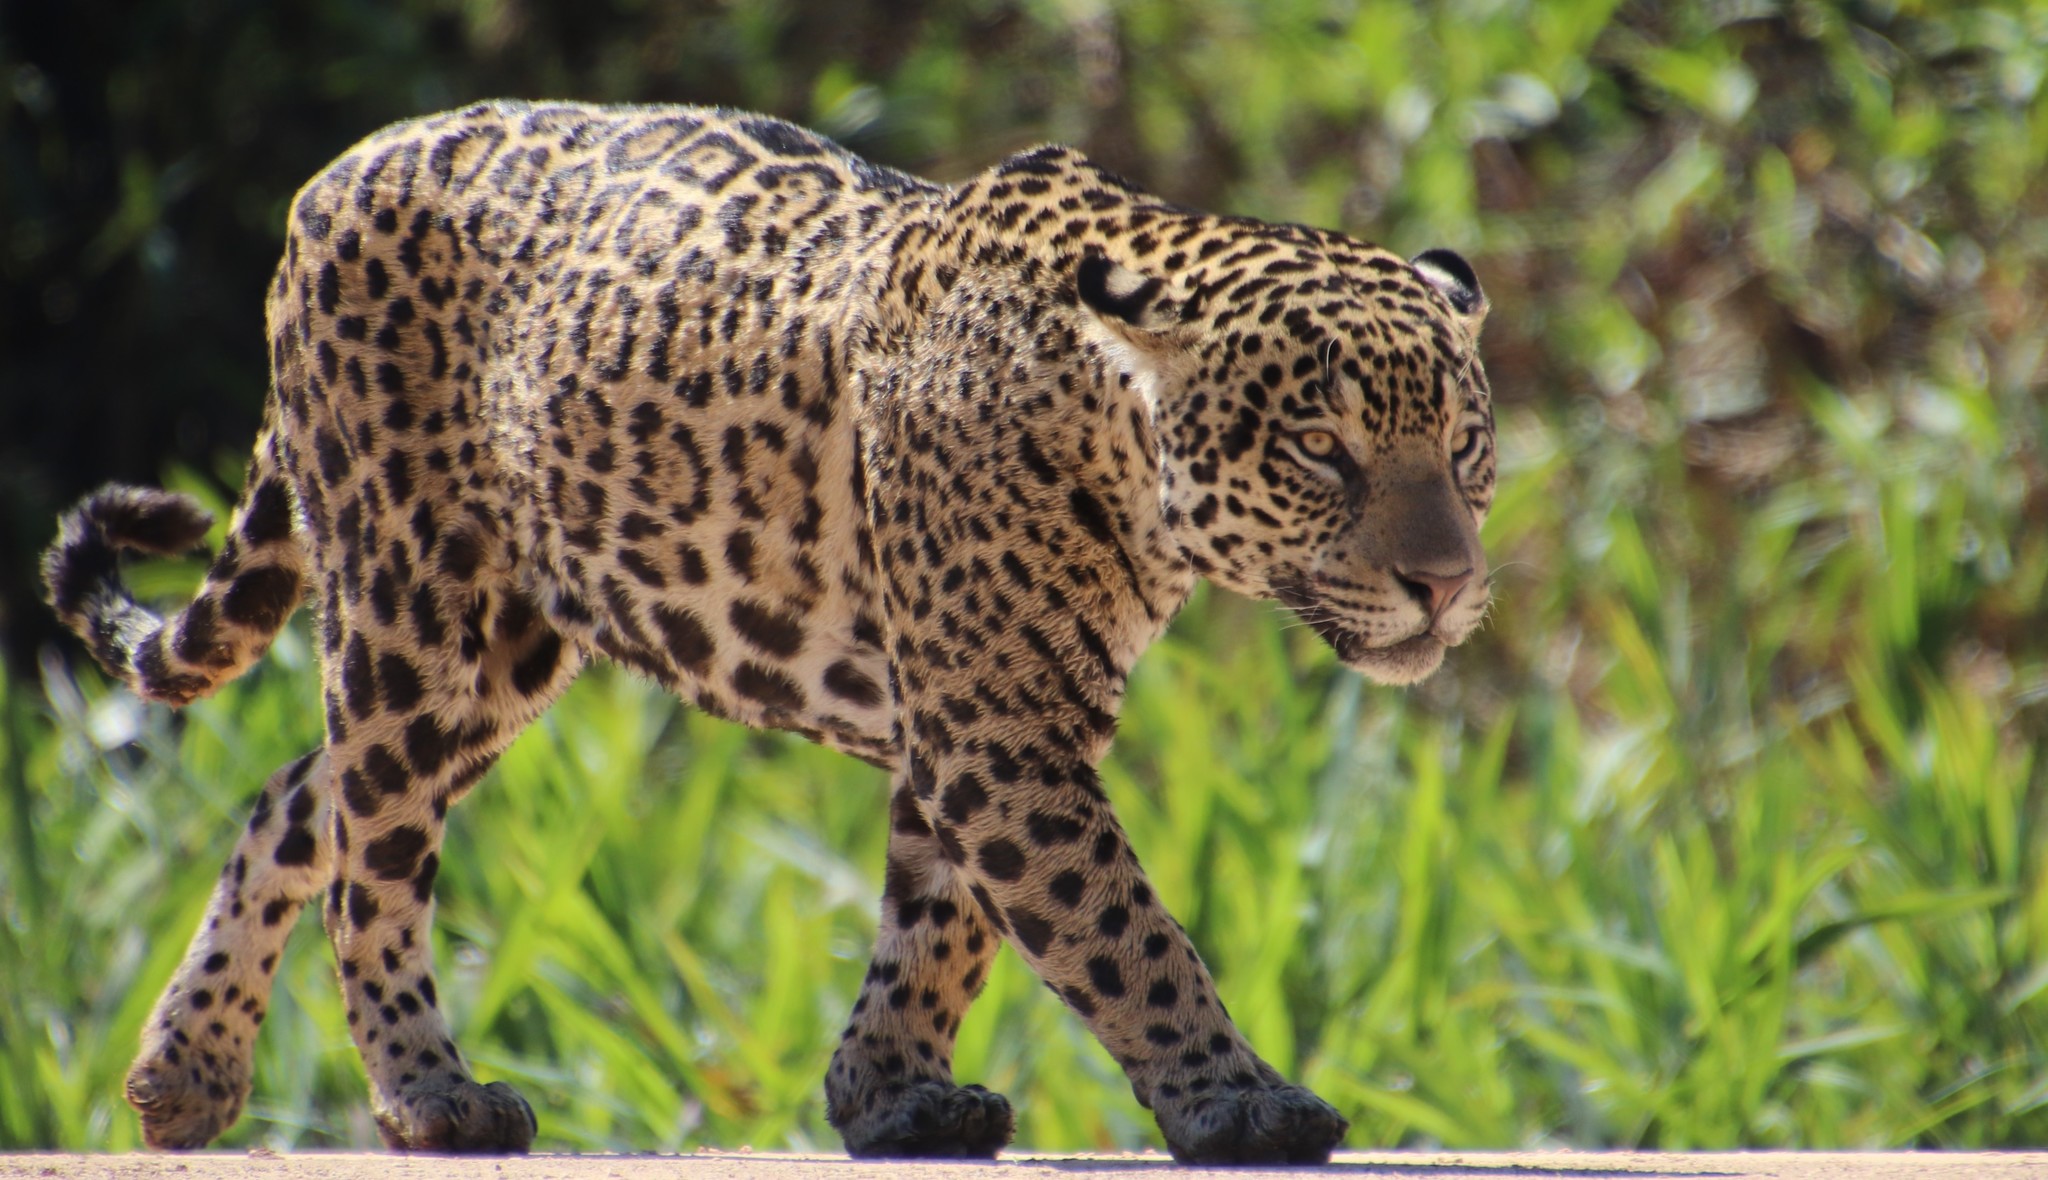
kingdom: Animalia
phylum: Chordata
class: Mammalia
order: Carnivora
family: Felidae
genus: Panthera
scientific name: Panthera onca
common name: Jaguar
